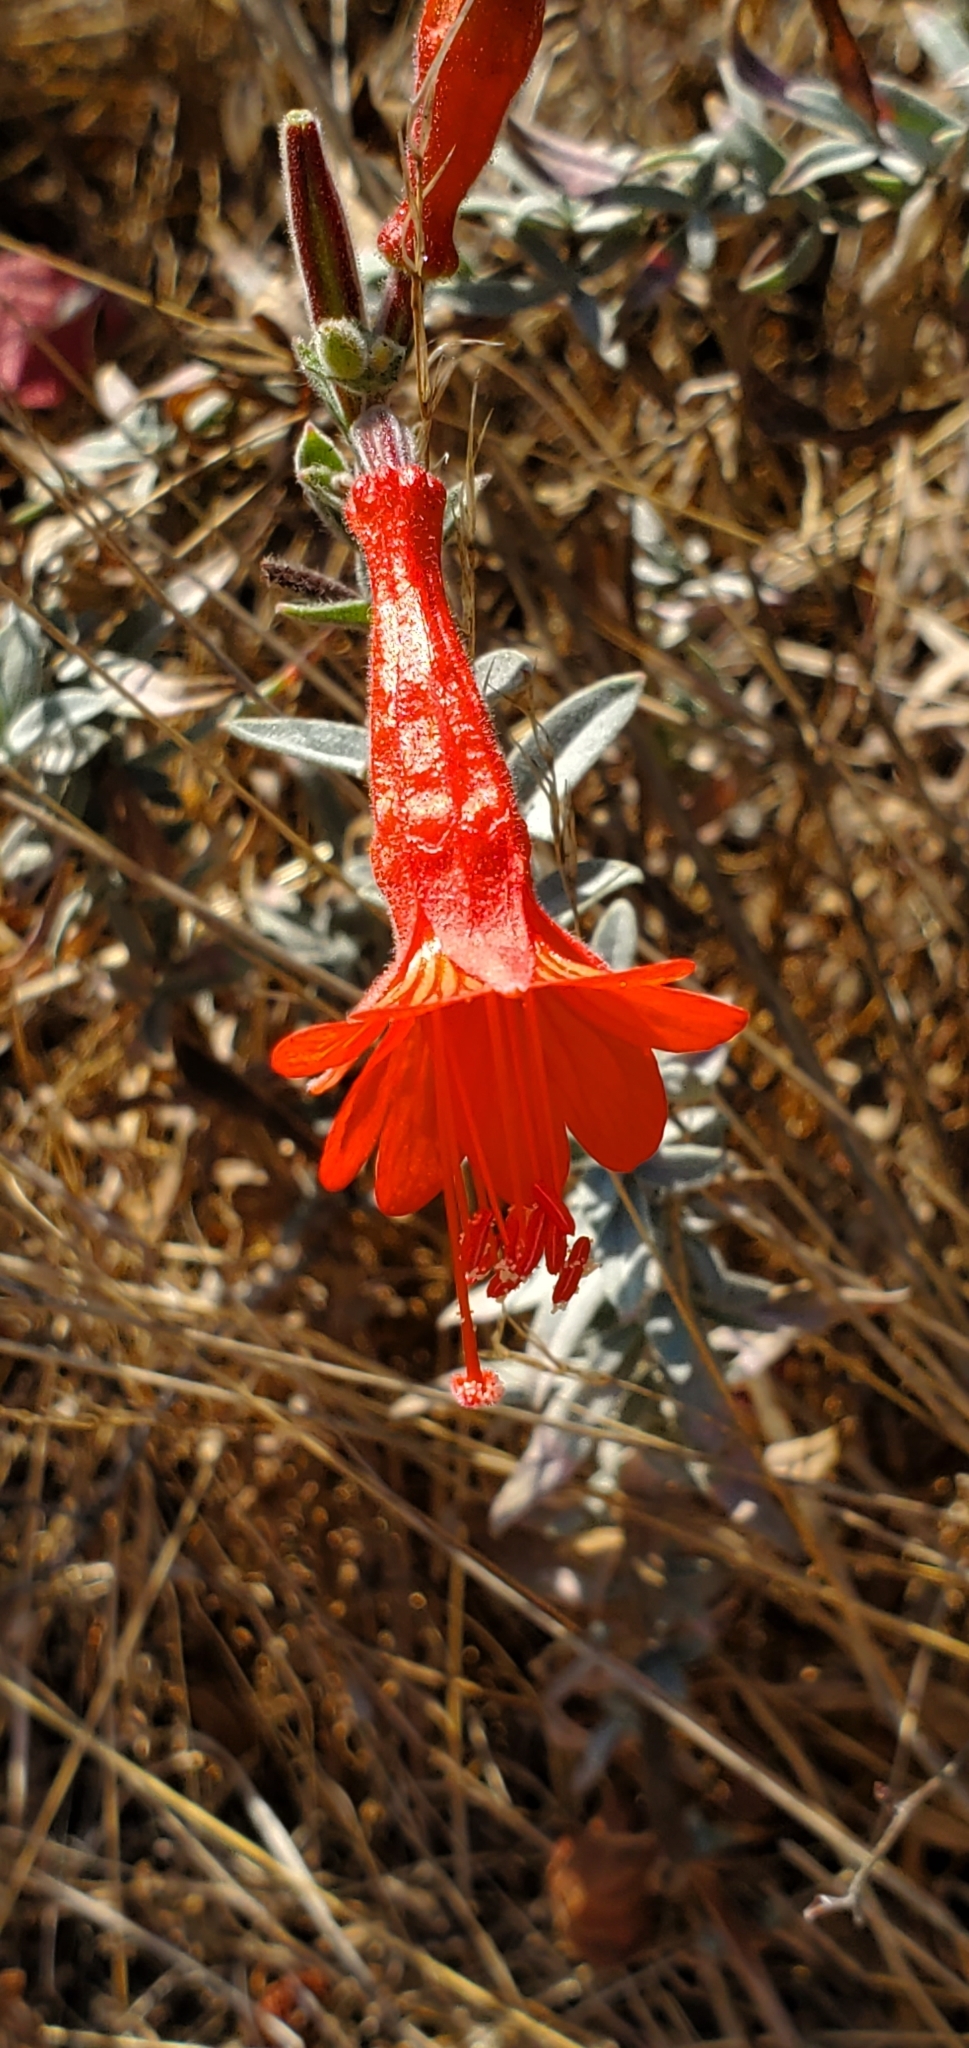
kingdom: Plantae
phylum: Tracheophyta
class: Magnoliopsida
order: Myrtales
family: Onagraceae
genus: Epilobium
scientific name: Epilobium canum
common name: California-fuchsia
